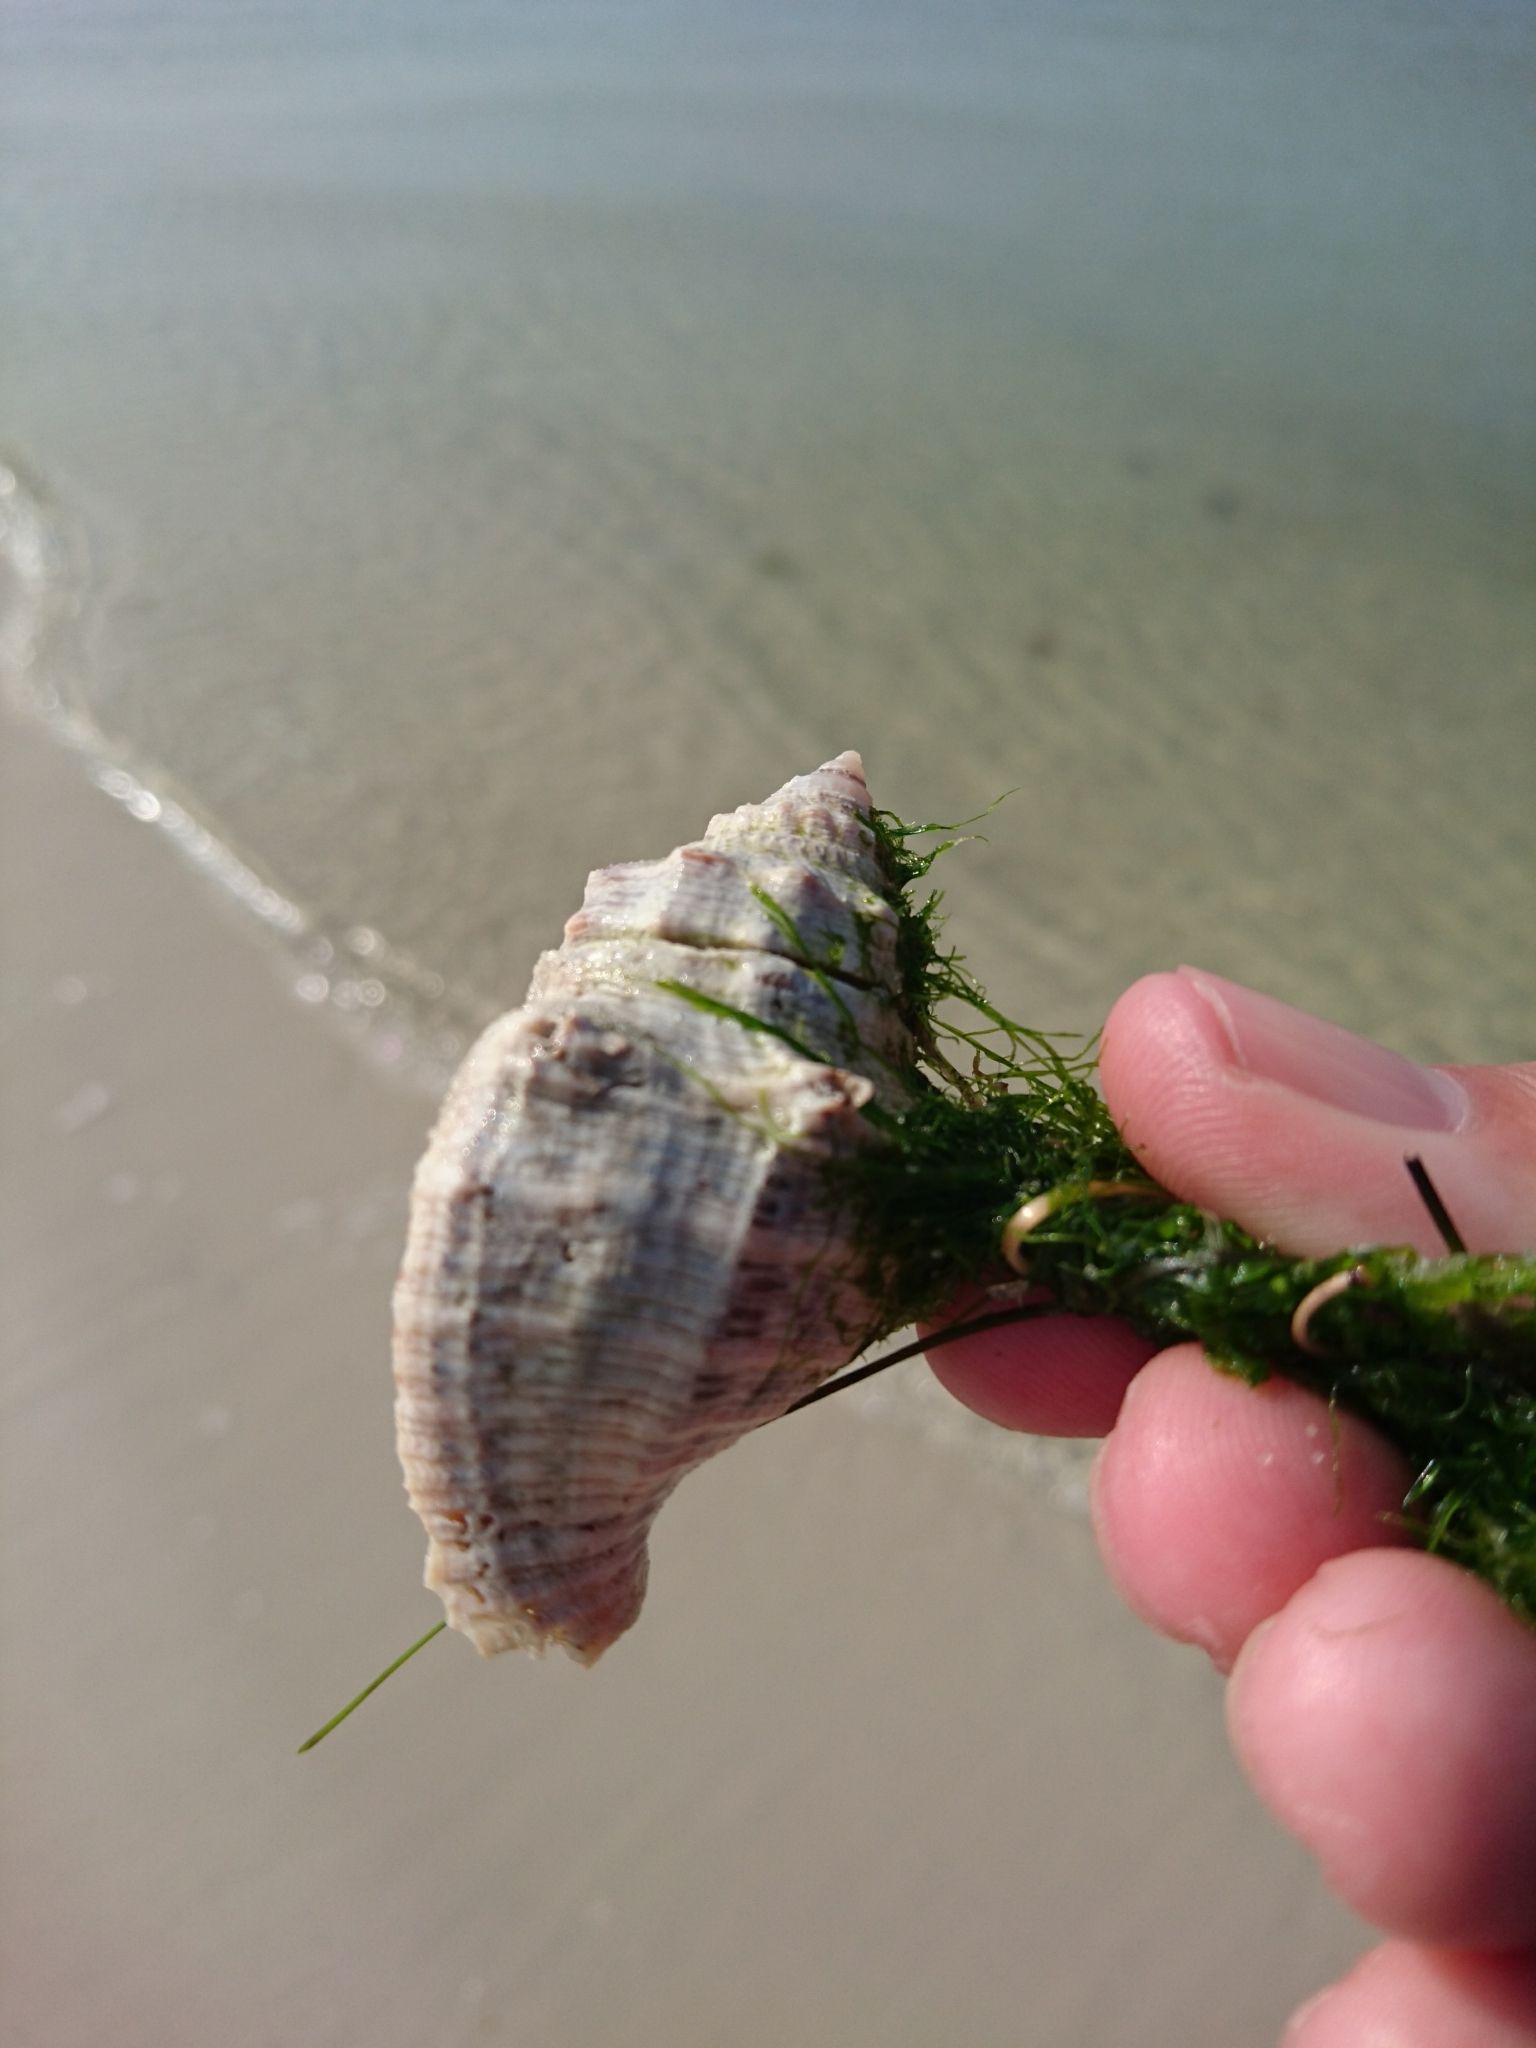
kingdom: Animalia
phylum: Mollusca
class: Gastropoda
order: Neogastropoda
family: Muricidae
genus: Stramonita
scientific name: Stramonita canaliculata
